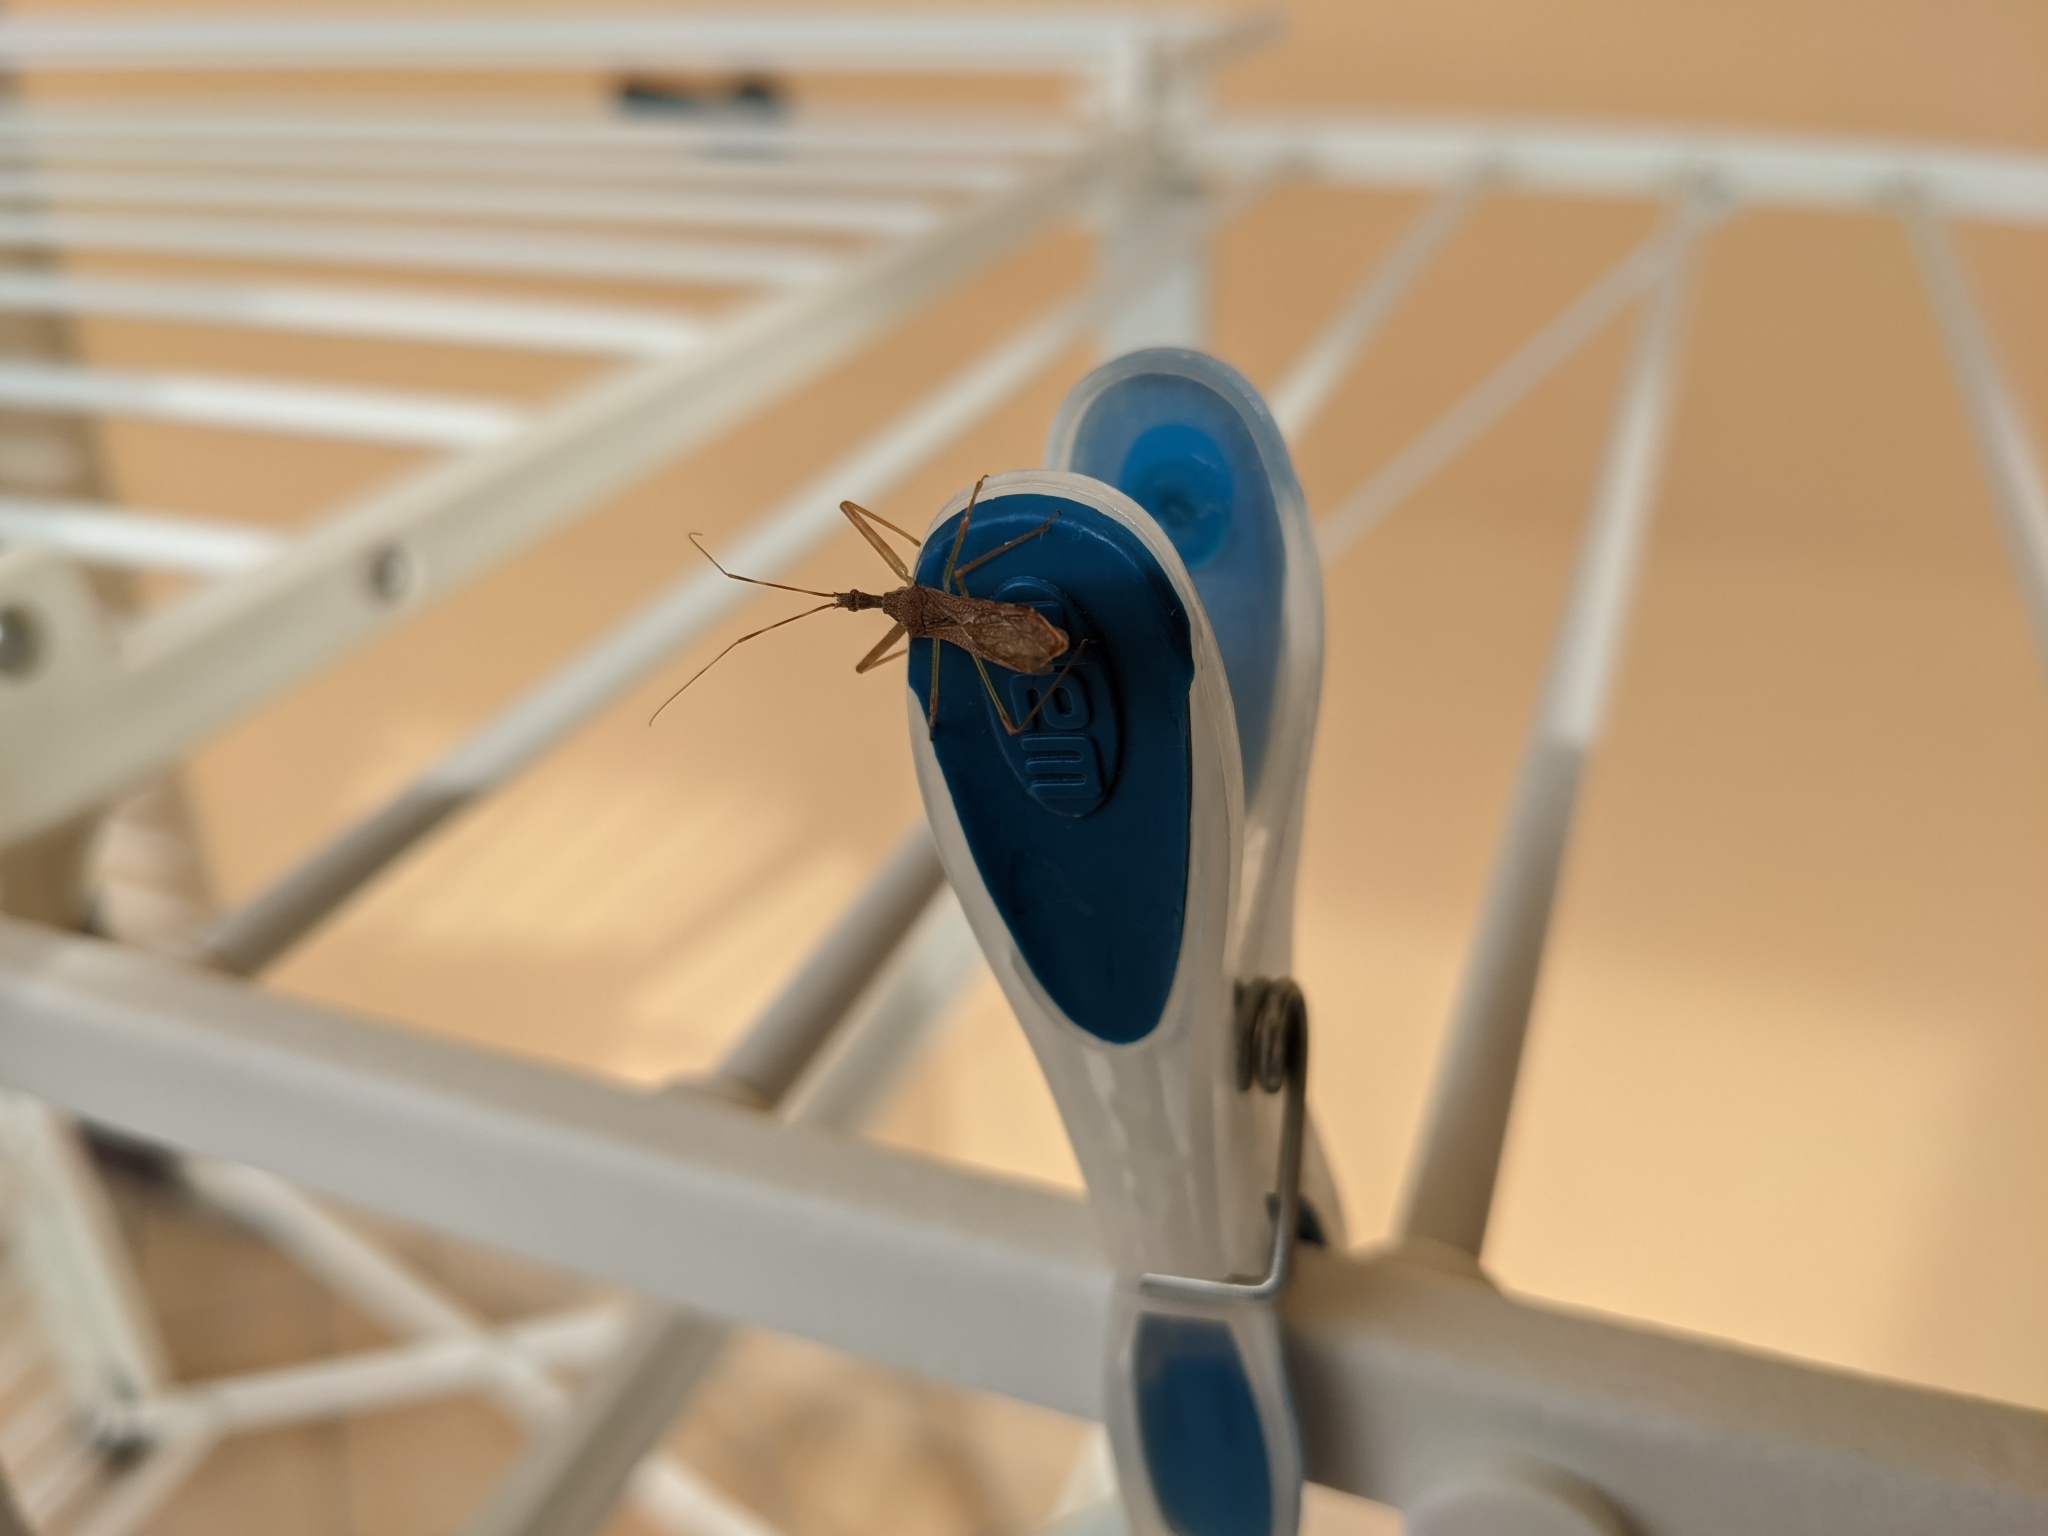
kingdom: Animalia
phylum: Arthropoda
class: Insecta
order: Hemiptera
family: Reduviidae
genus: Nagusta
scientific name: Nagusta goedelii
